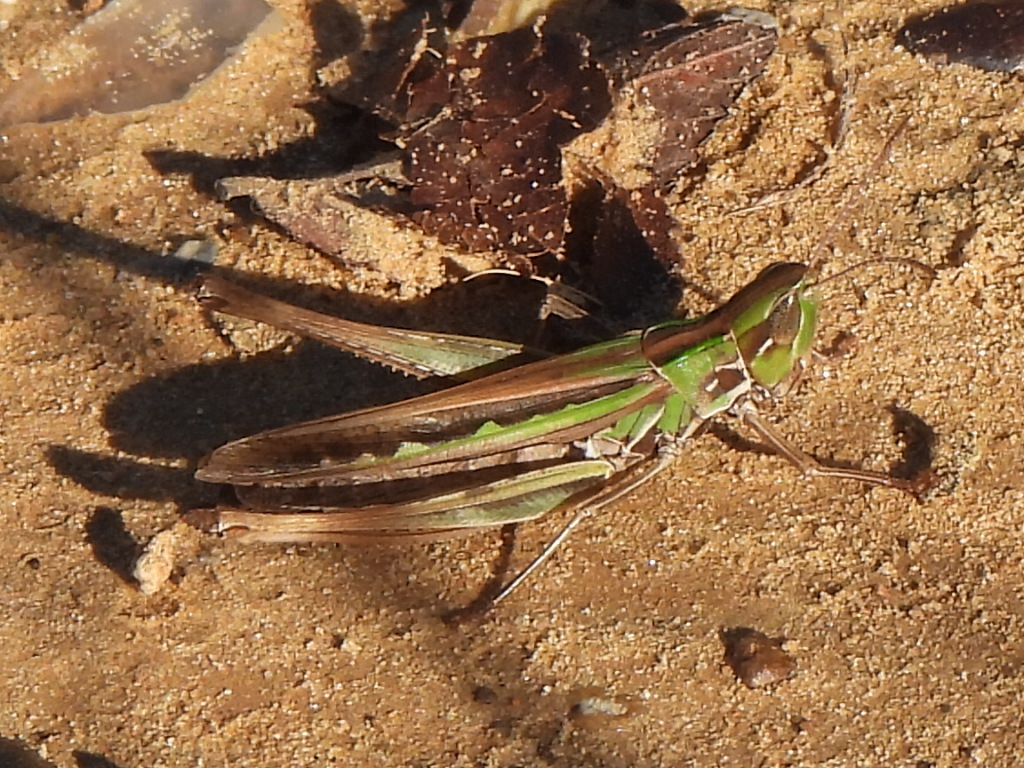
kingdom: Animalia
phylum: Arthropoda
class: Insecta
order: Orthoptera
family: Acrididae
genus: Syrbula
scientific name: Syrbula admirabilis
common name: Handsome grasshopper
